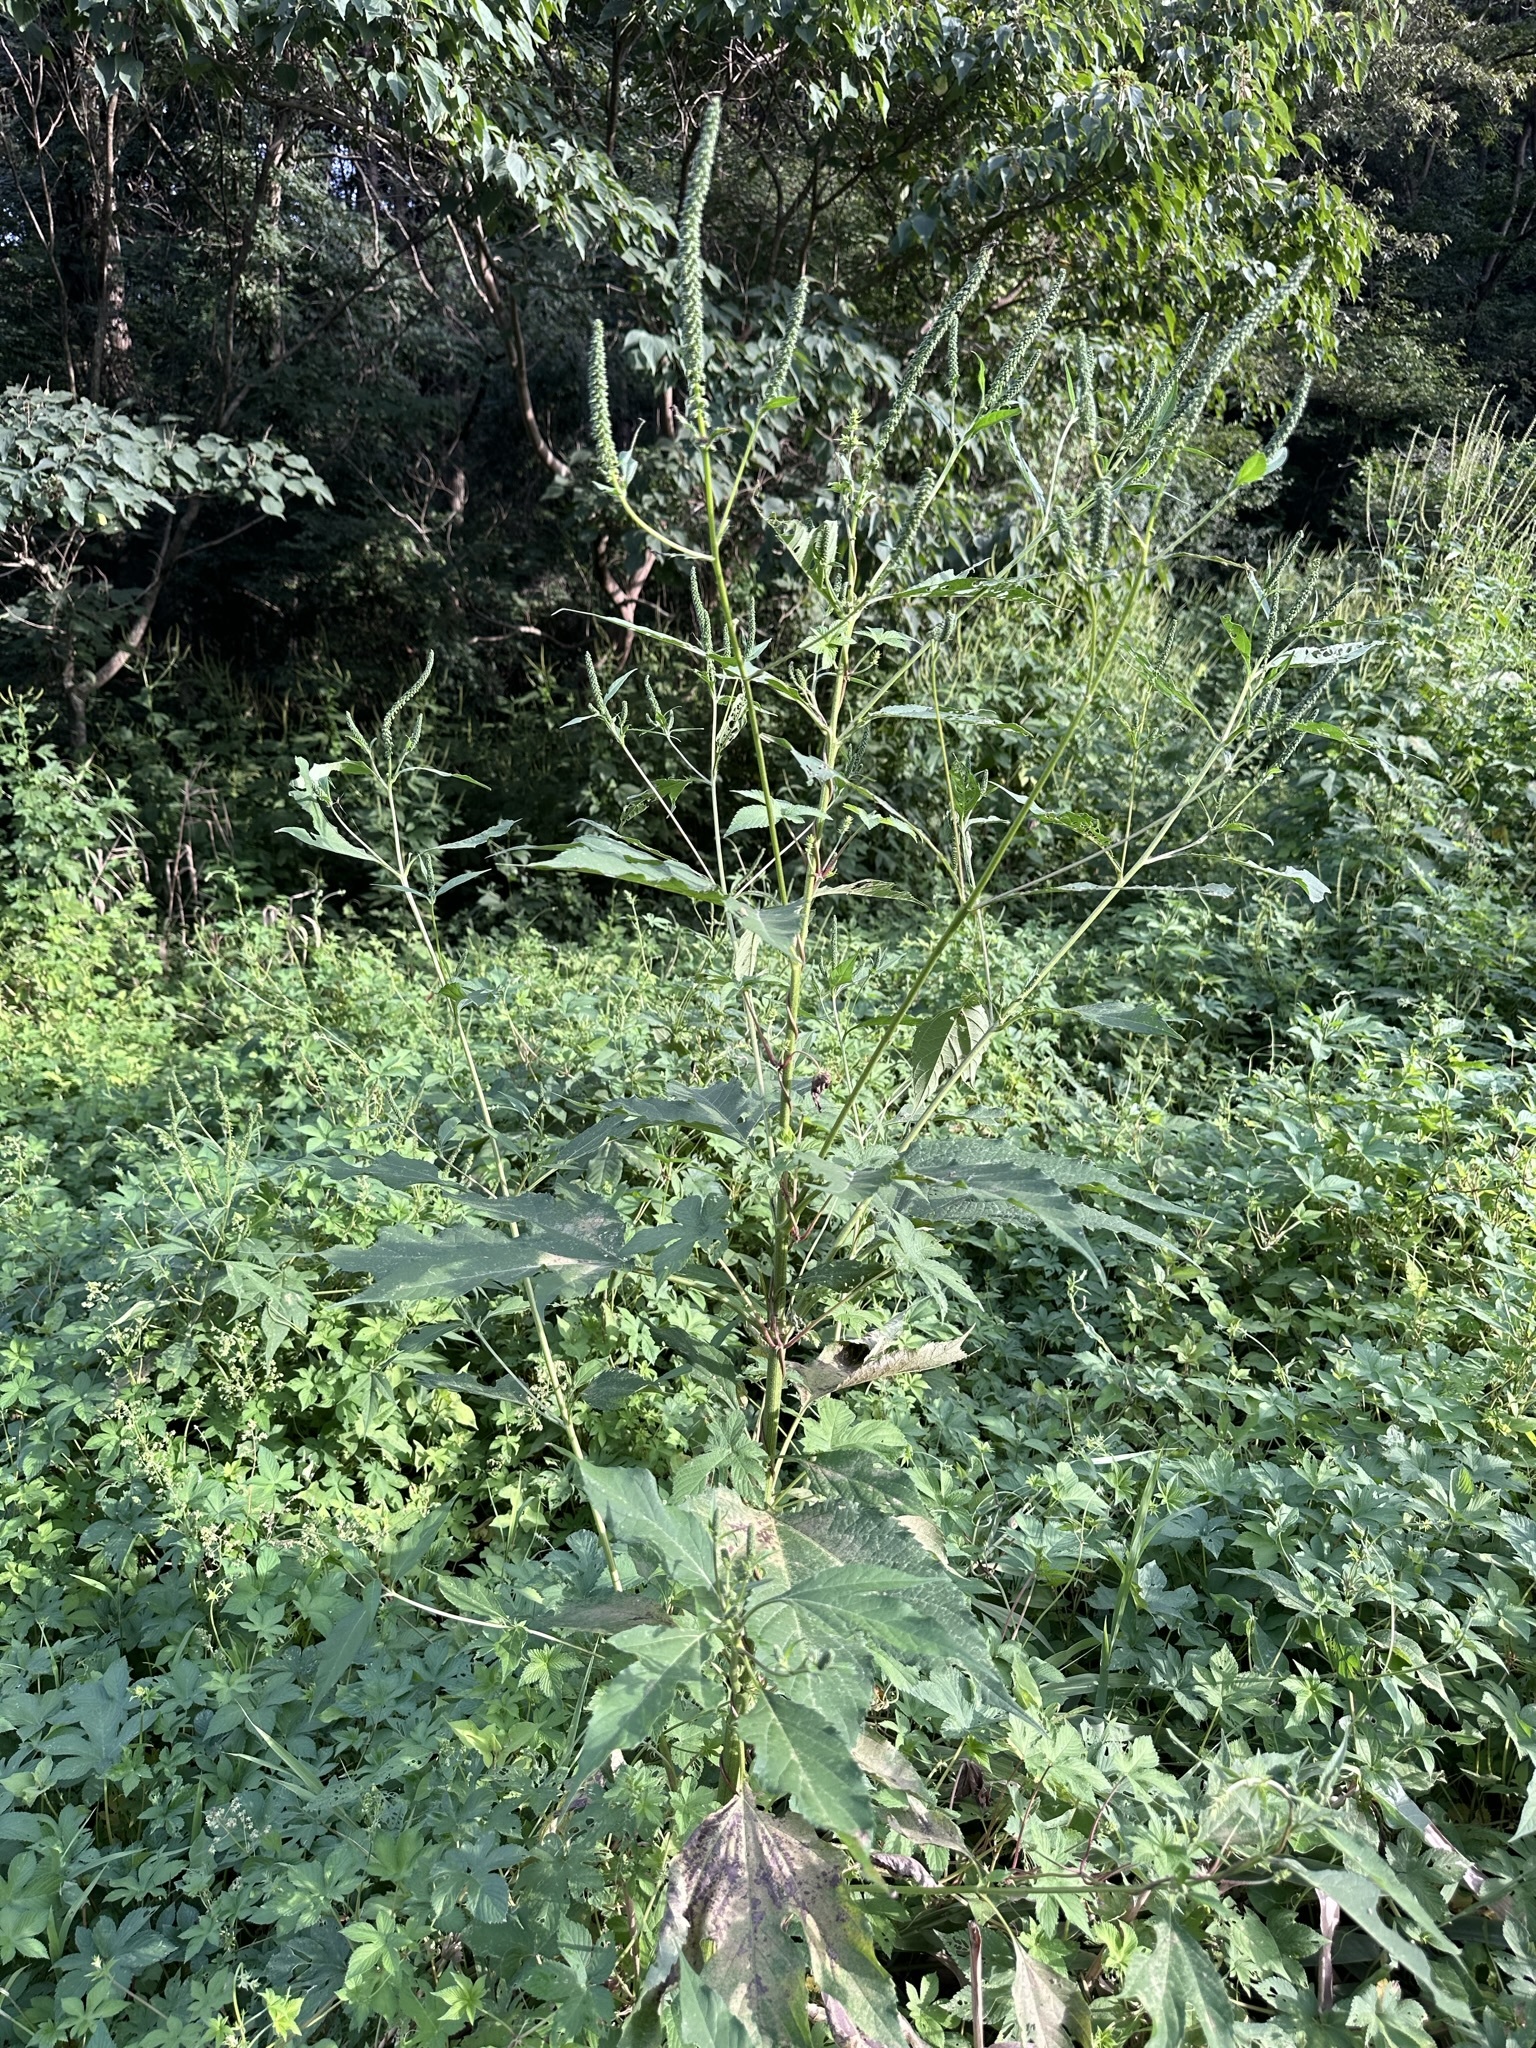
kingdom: Plantae
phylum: Tracheophyta
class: Magnoliopsida
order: Asterales
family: Asteraceae
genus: Ambrosia
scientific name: Ambrosia trifida
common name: Giant ragweed
